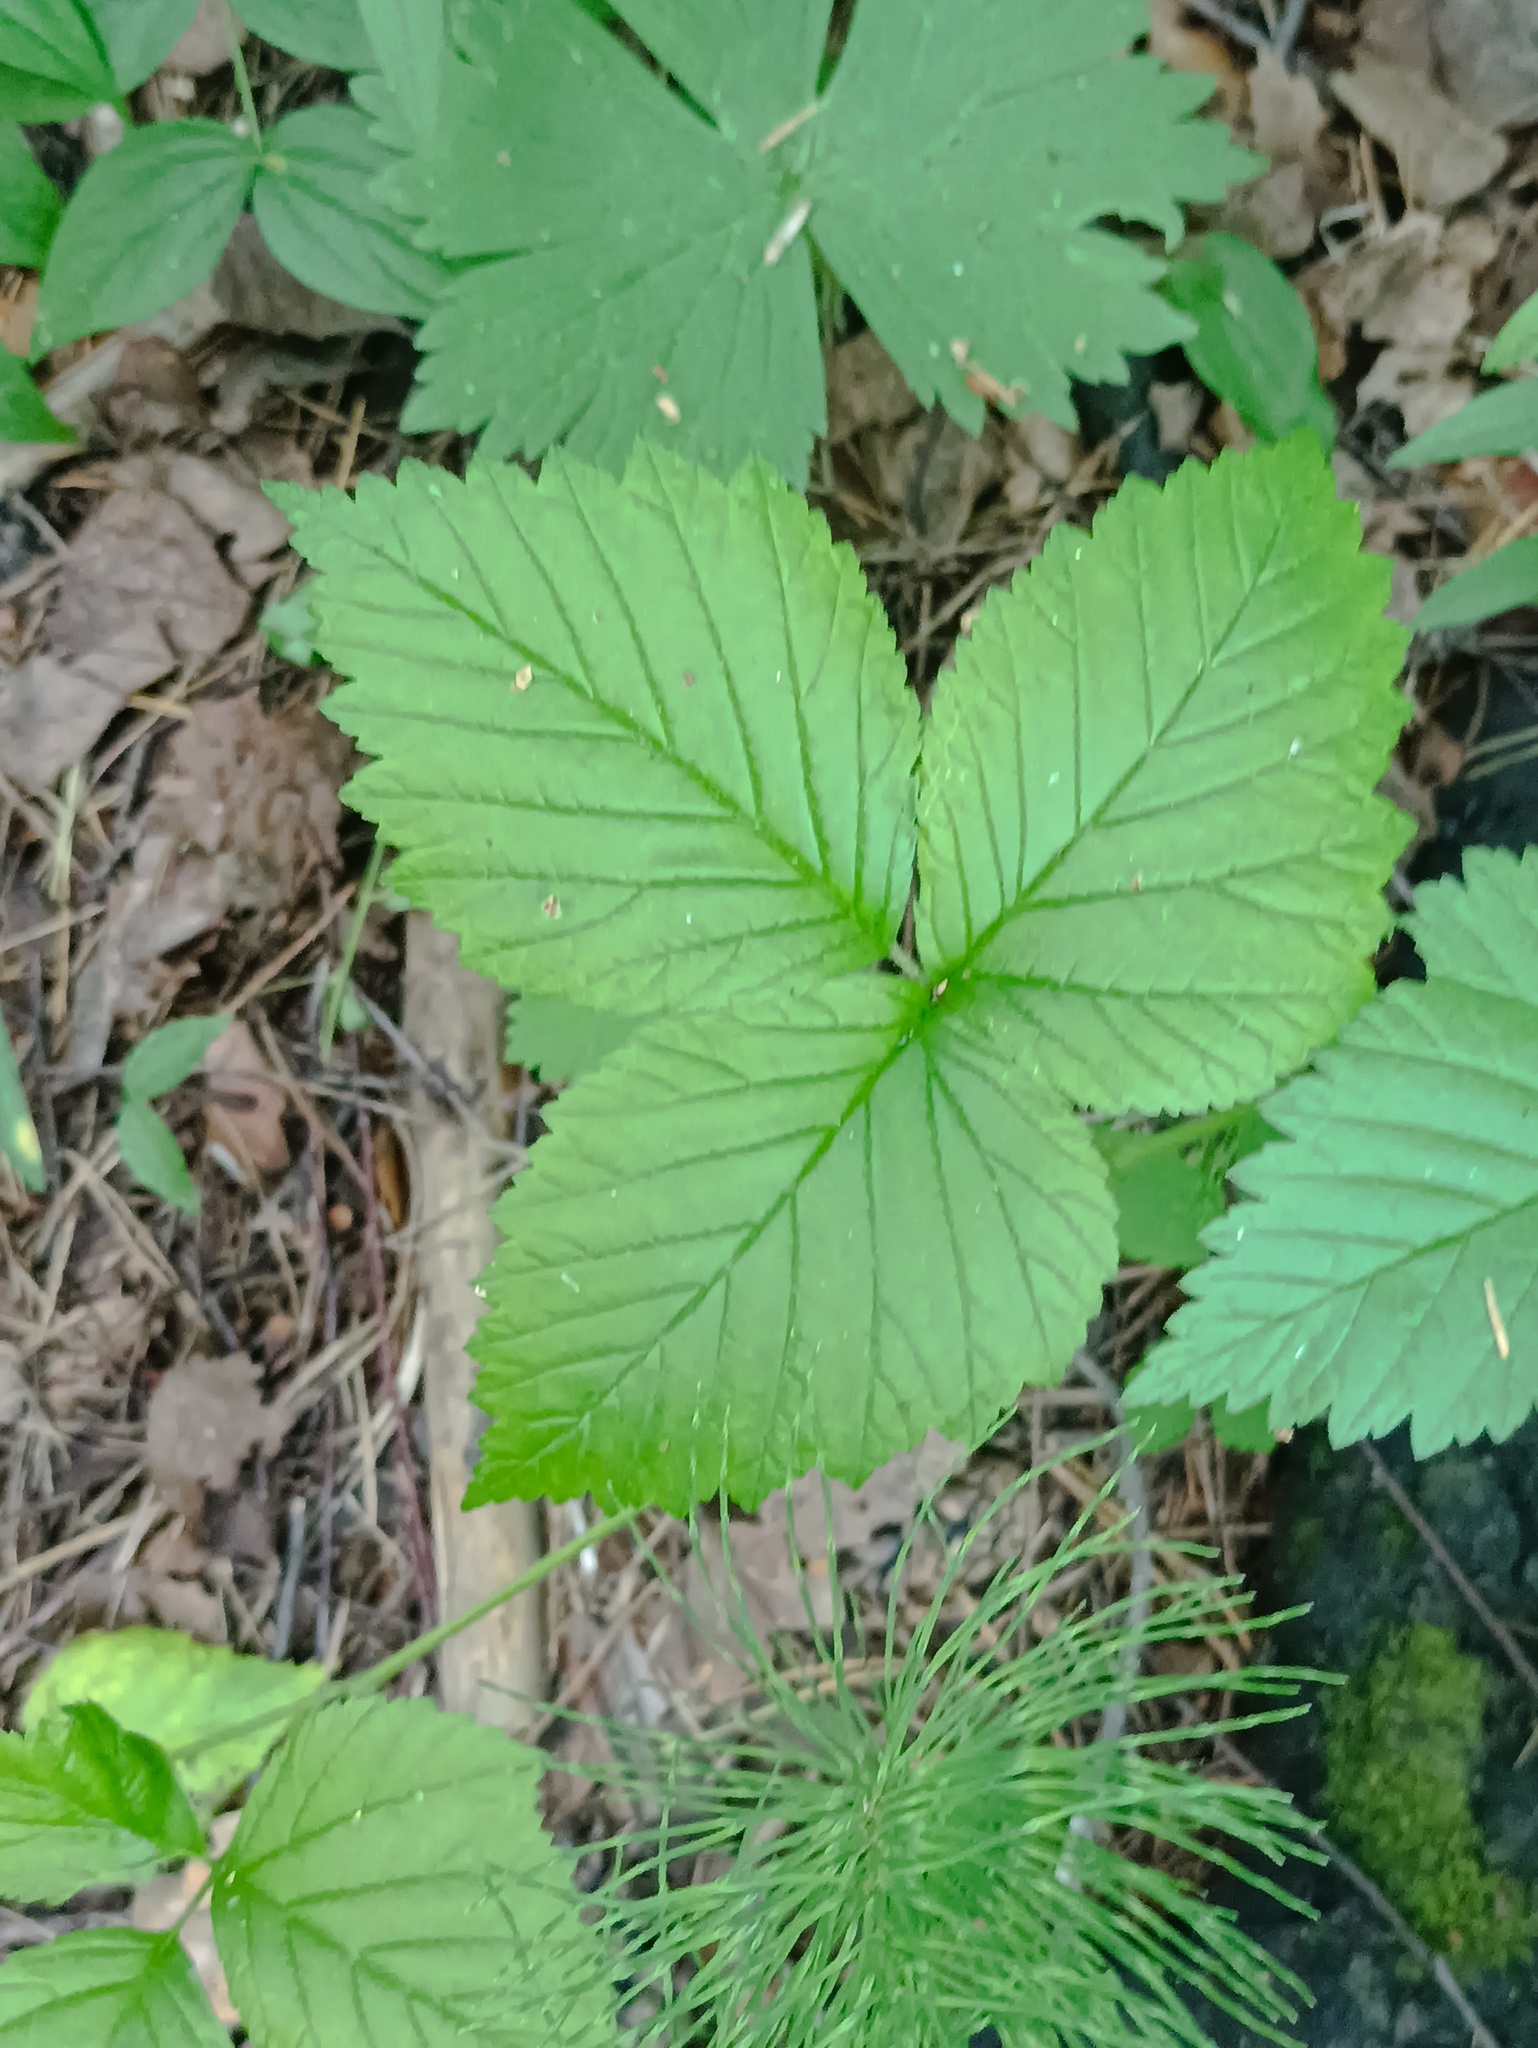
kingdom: Plantae
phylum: Tracheophyta
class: Magnoliopsida
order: Rosales
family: Rosaceae
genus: Rubus
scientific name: Rubus saxatilis
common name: Stone bramble
